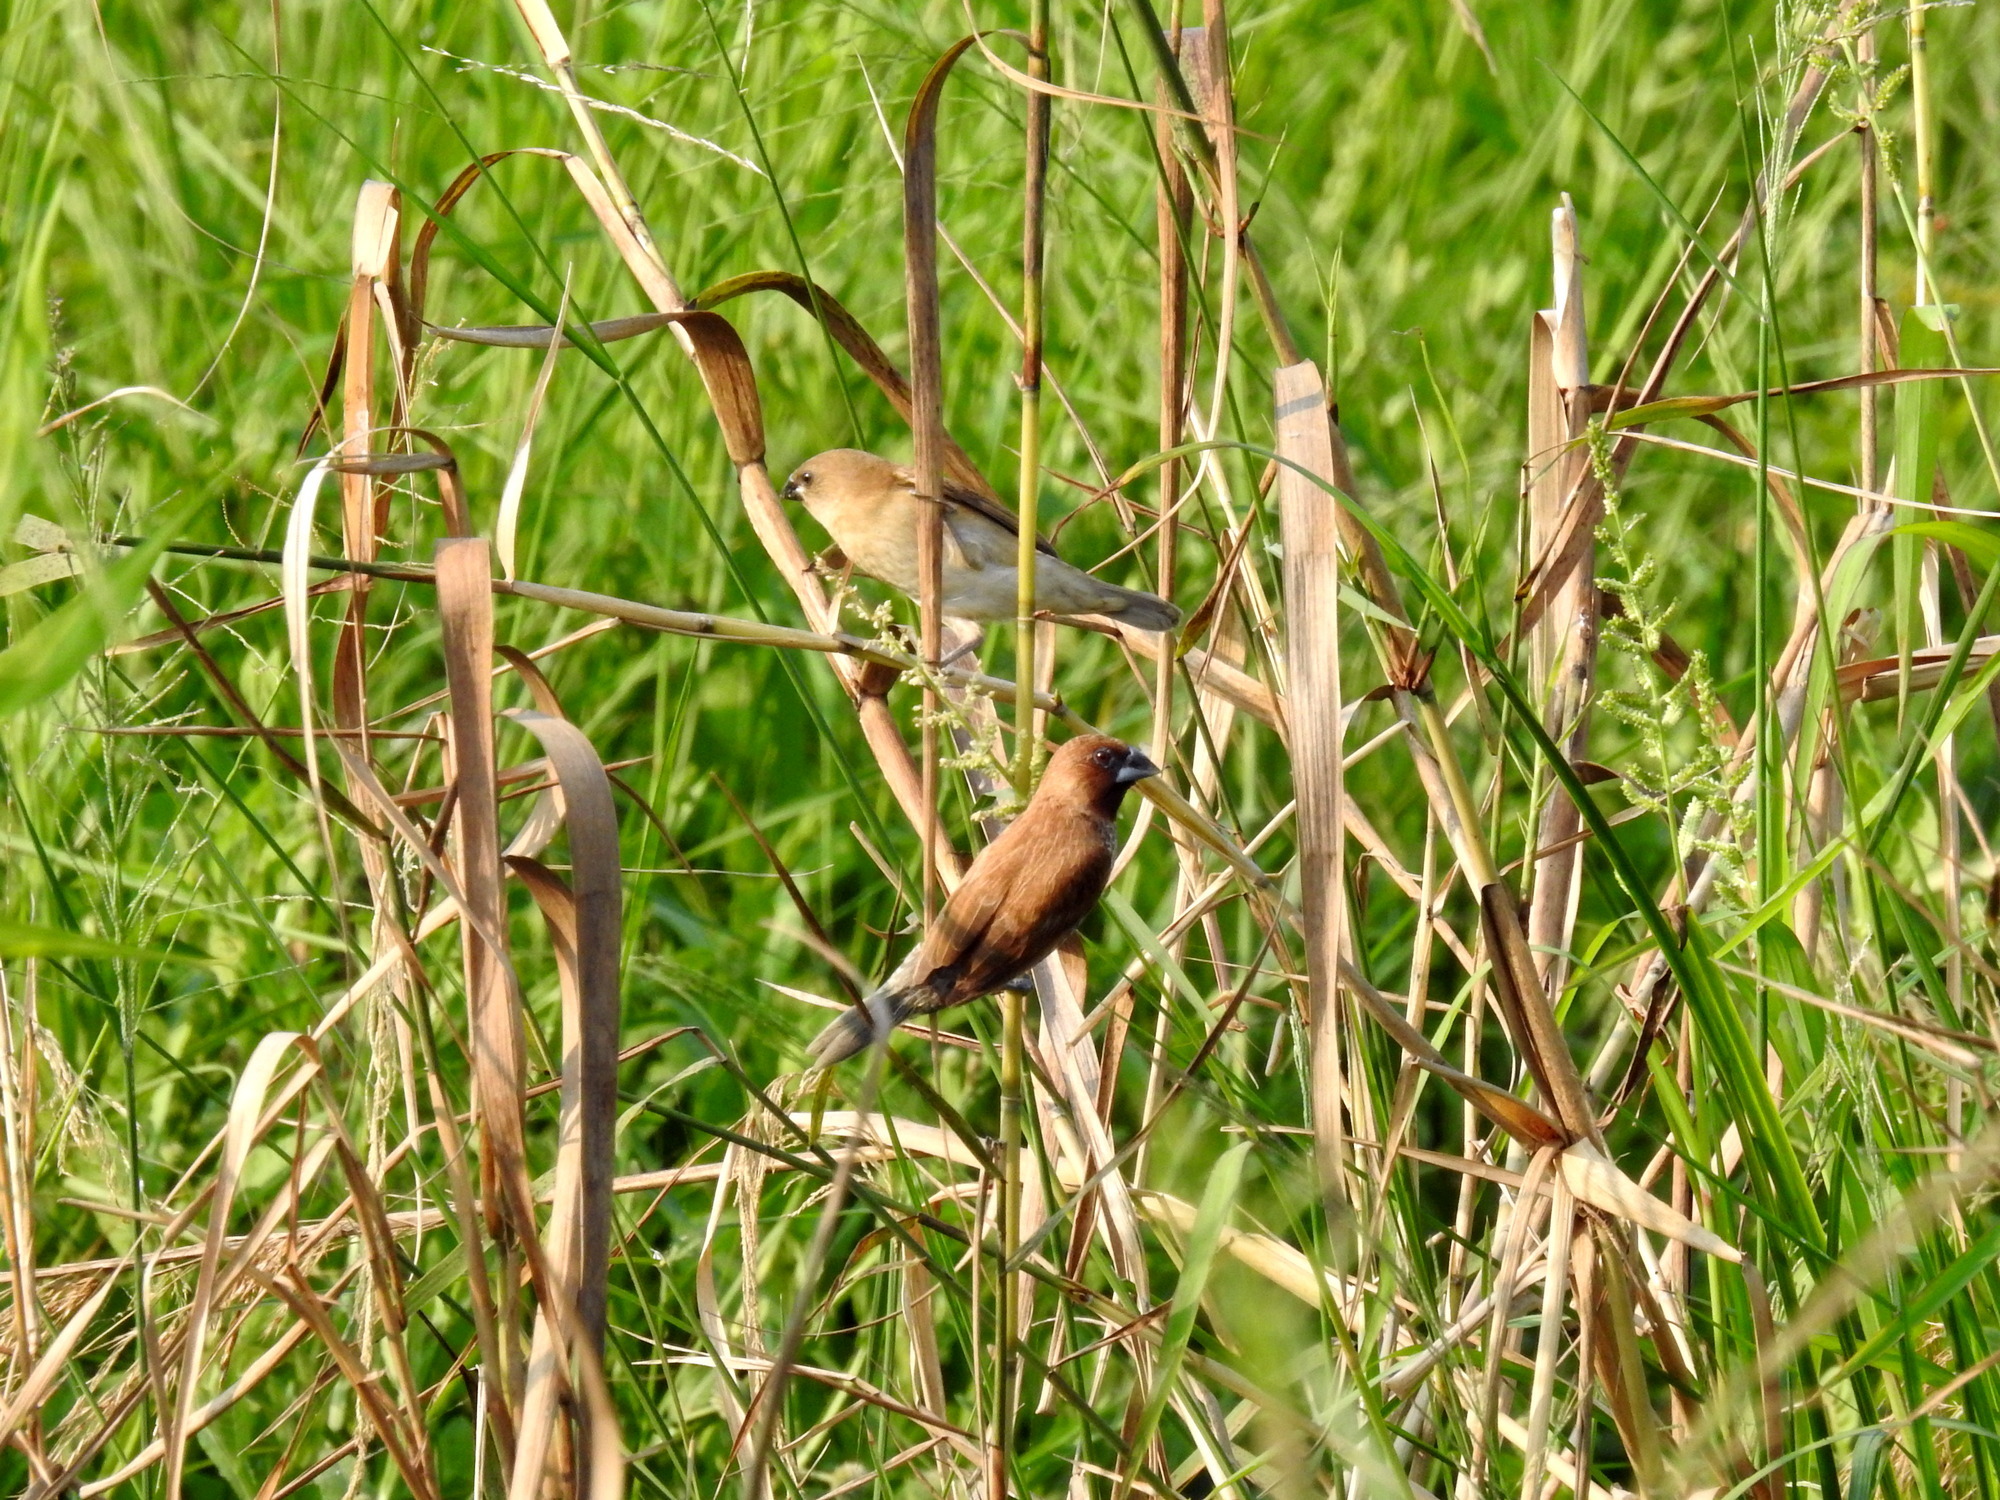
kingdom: Animalia
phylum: Chordata
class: Aves
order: Passeriformes
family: Estrildidae
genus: Lonchura
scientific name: Lonchura punctulata
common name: Scaly-breasted munia
